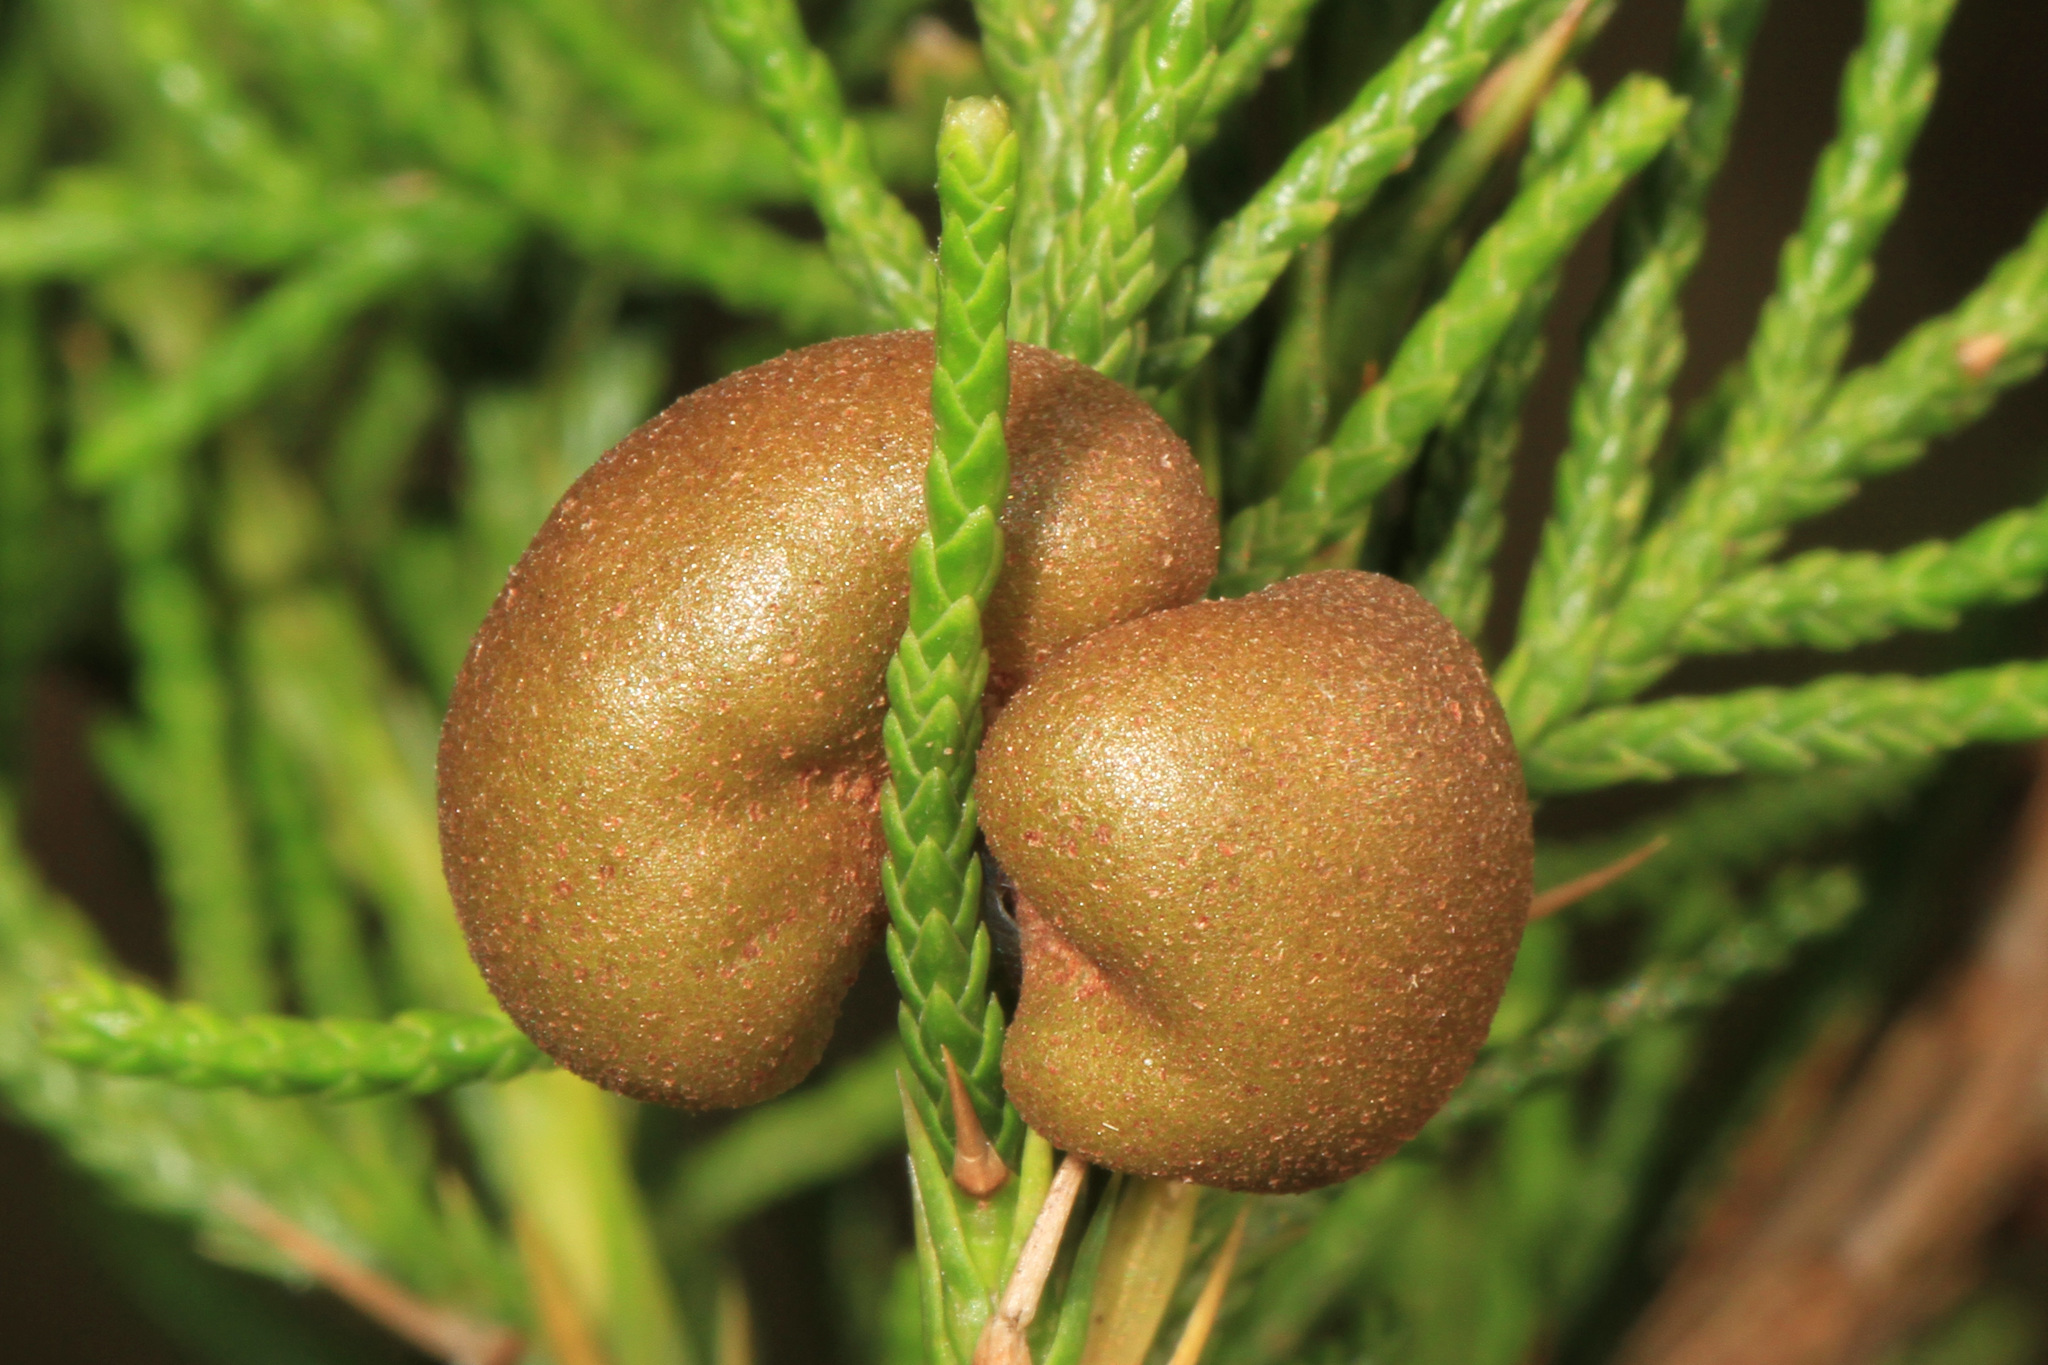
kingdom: Fungi
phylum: Basidiomycota
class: Pucciniomycetes
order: Pucciniales
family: Gymnosporangiaceae
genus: Gymnosporangium
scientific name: Gymnosporangium juniperi-virginianae
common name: Juniper-apple rust
